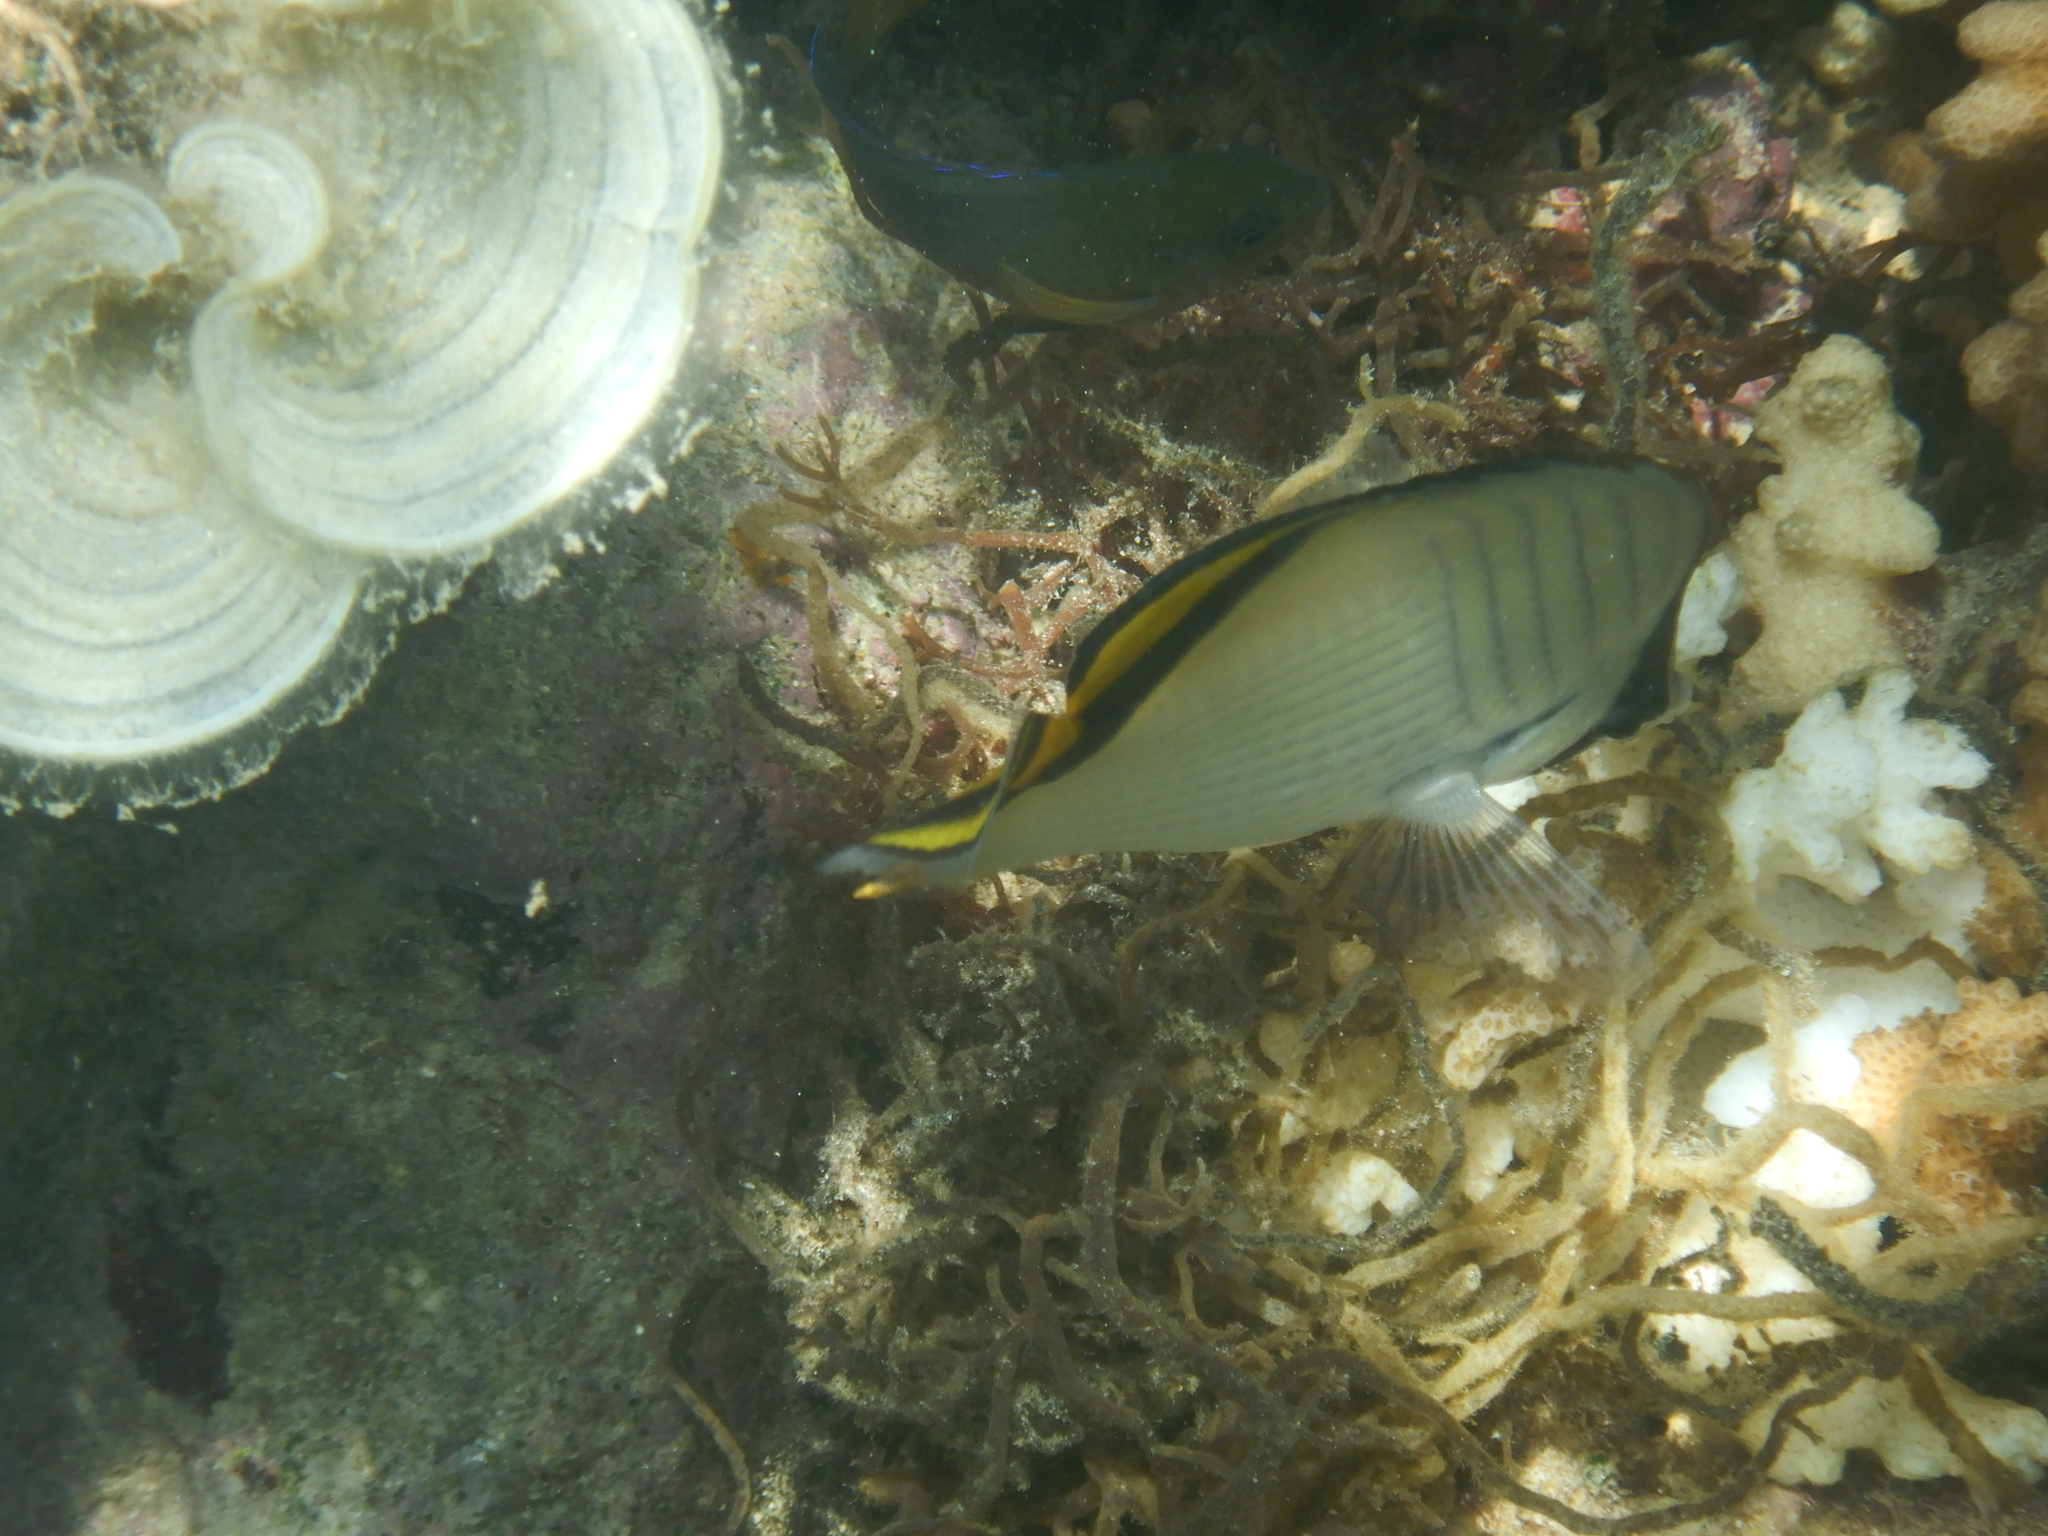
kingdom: Animalia
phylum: Chordata
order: Perciformes
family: Chaetodontidae
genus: Chaetodon
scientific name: Chaetodon vagabundus
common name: Vagabond butterflyfish
